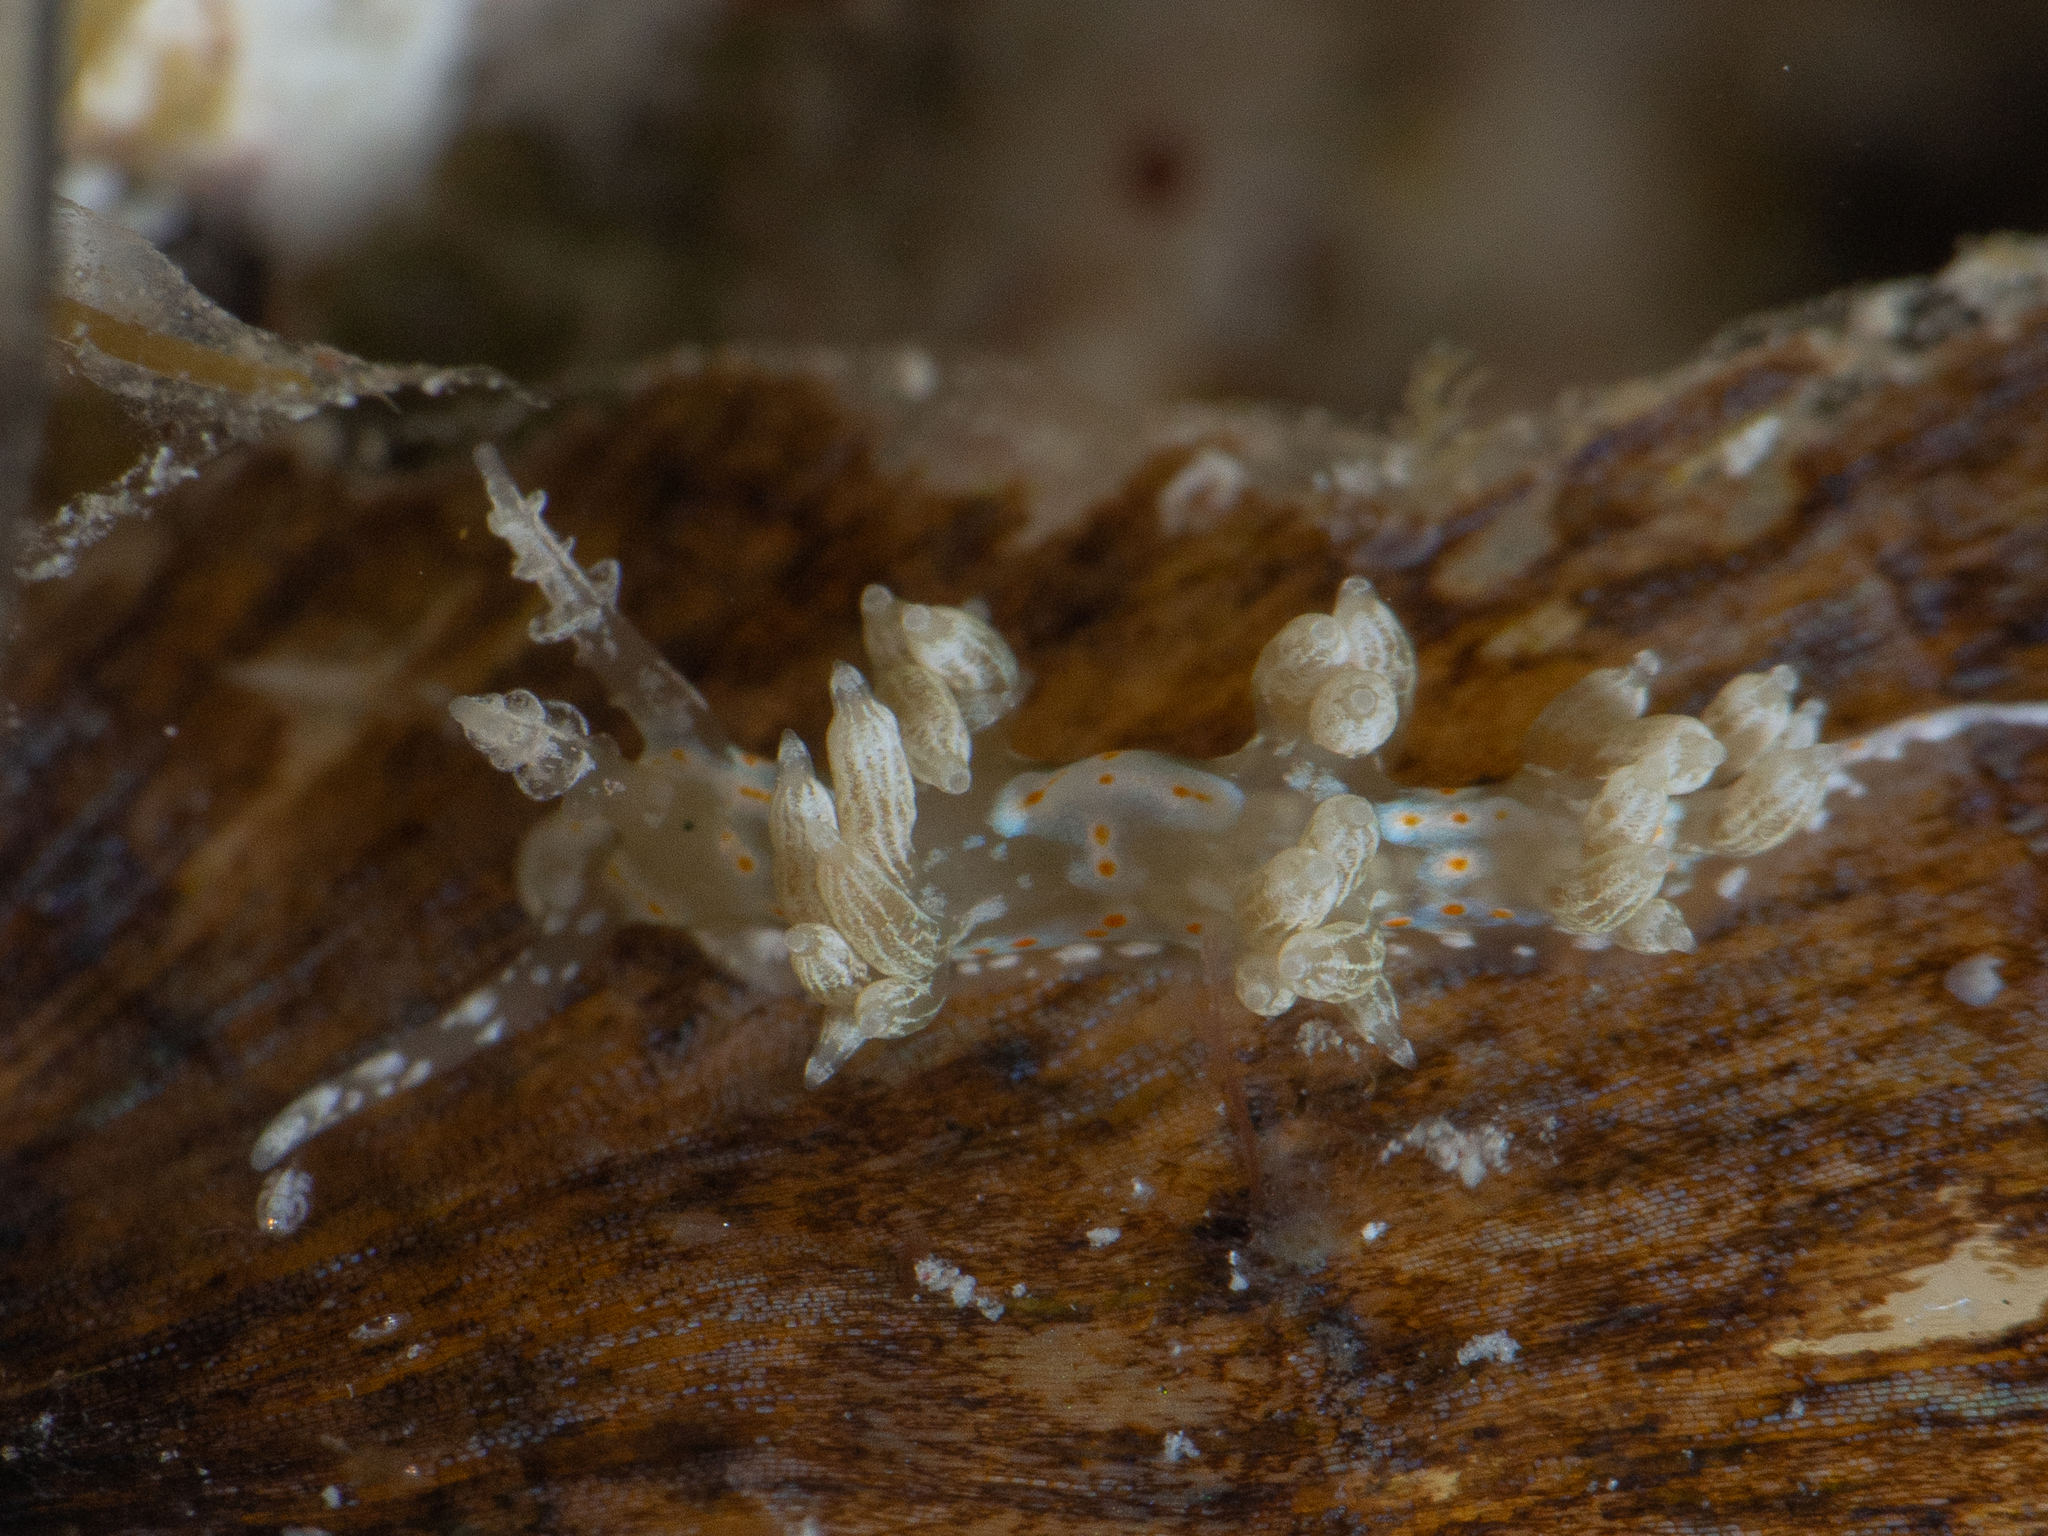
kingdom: Animalia
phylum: Mollusca
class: Gastropoda
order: Nudibranchia
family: Myrrhinidae
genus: Nanuca
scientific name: Nanuca sebastiani
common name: Orange-spotted nanuca
